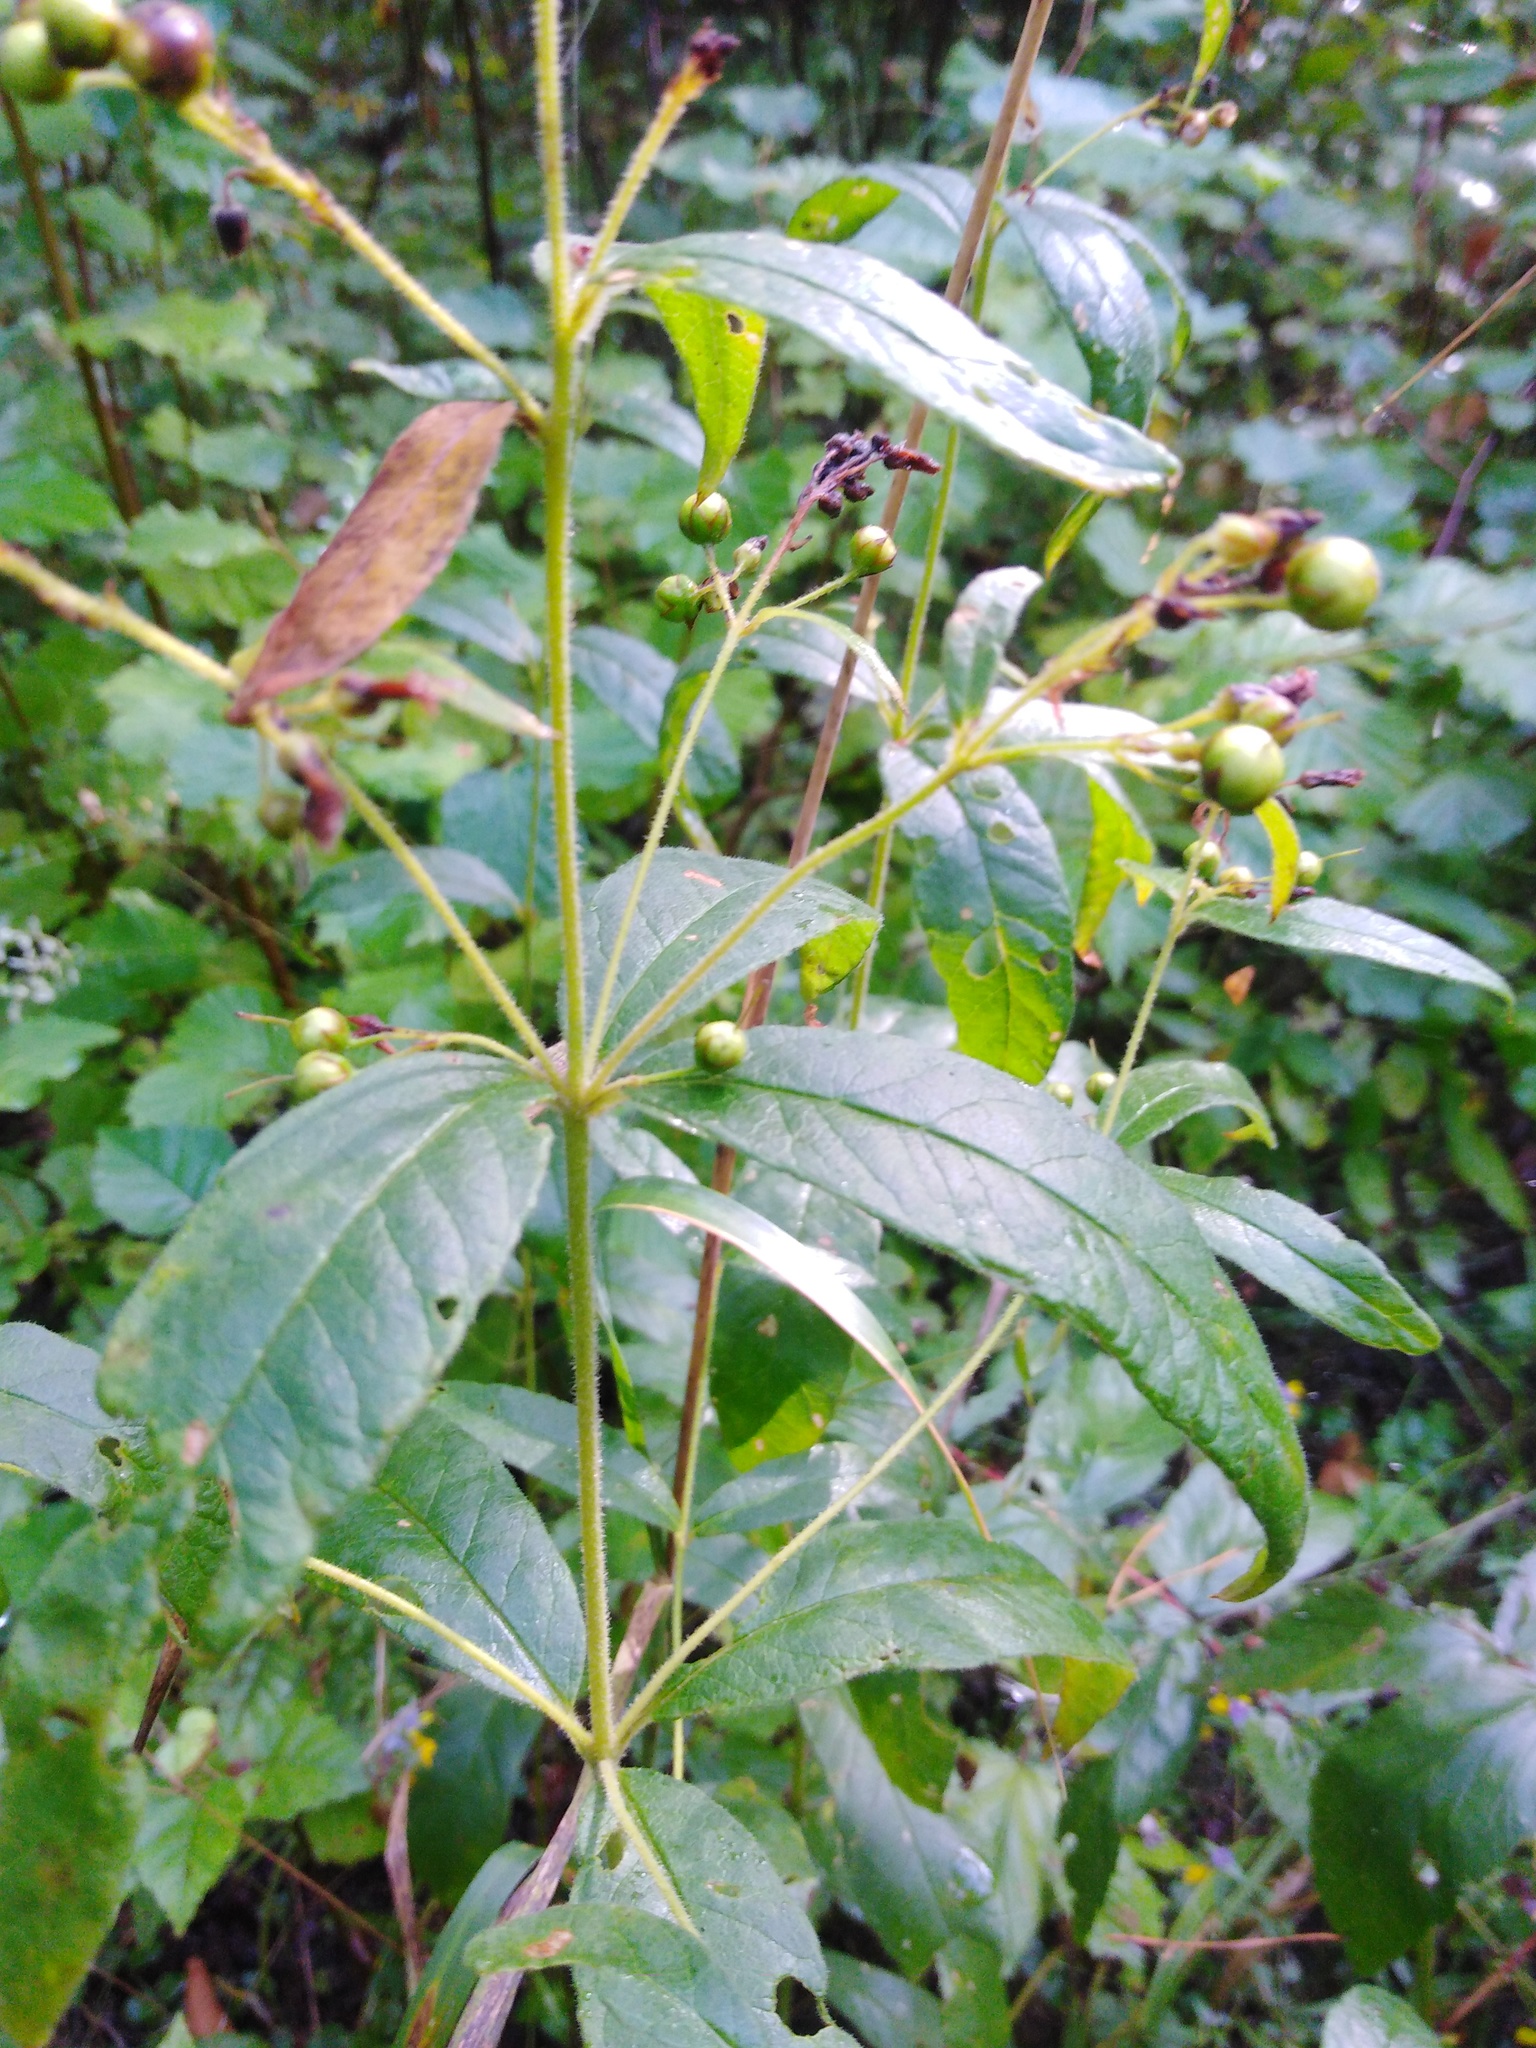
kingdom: Plantae
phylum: Tracheophyta
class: Magnoliopsida
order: Ericales
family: Primulaceae
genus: Lysimachia
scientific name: Lysimachia vulgaris
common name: Yellow loosestrife
